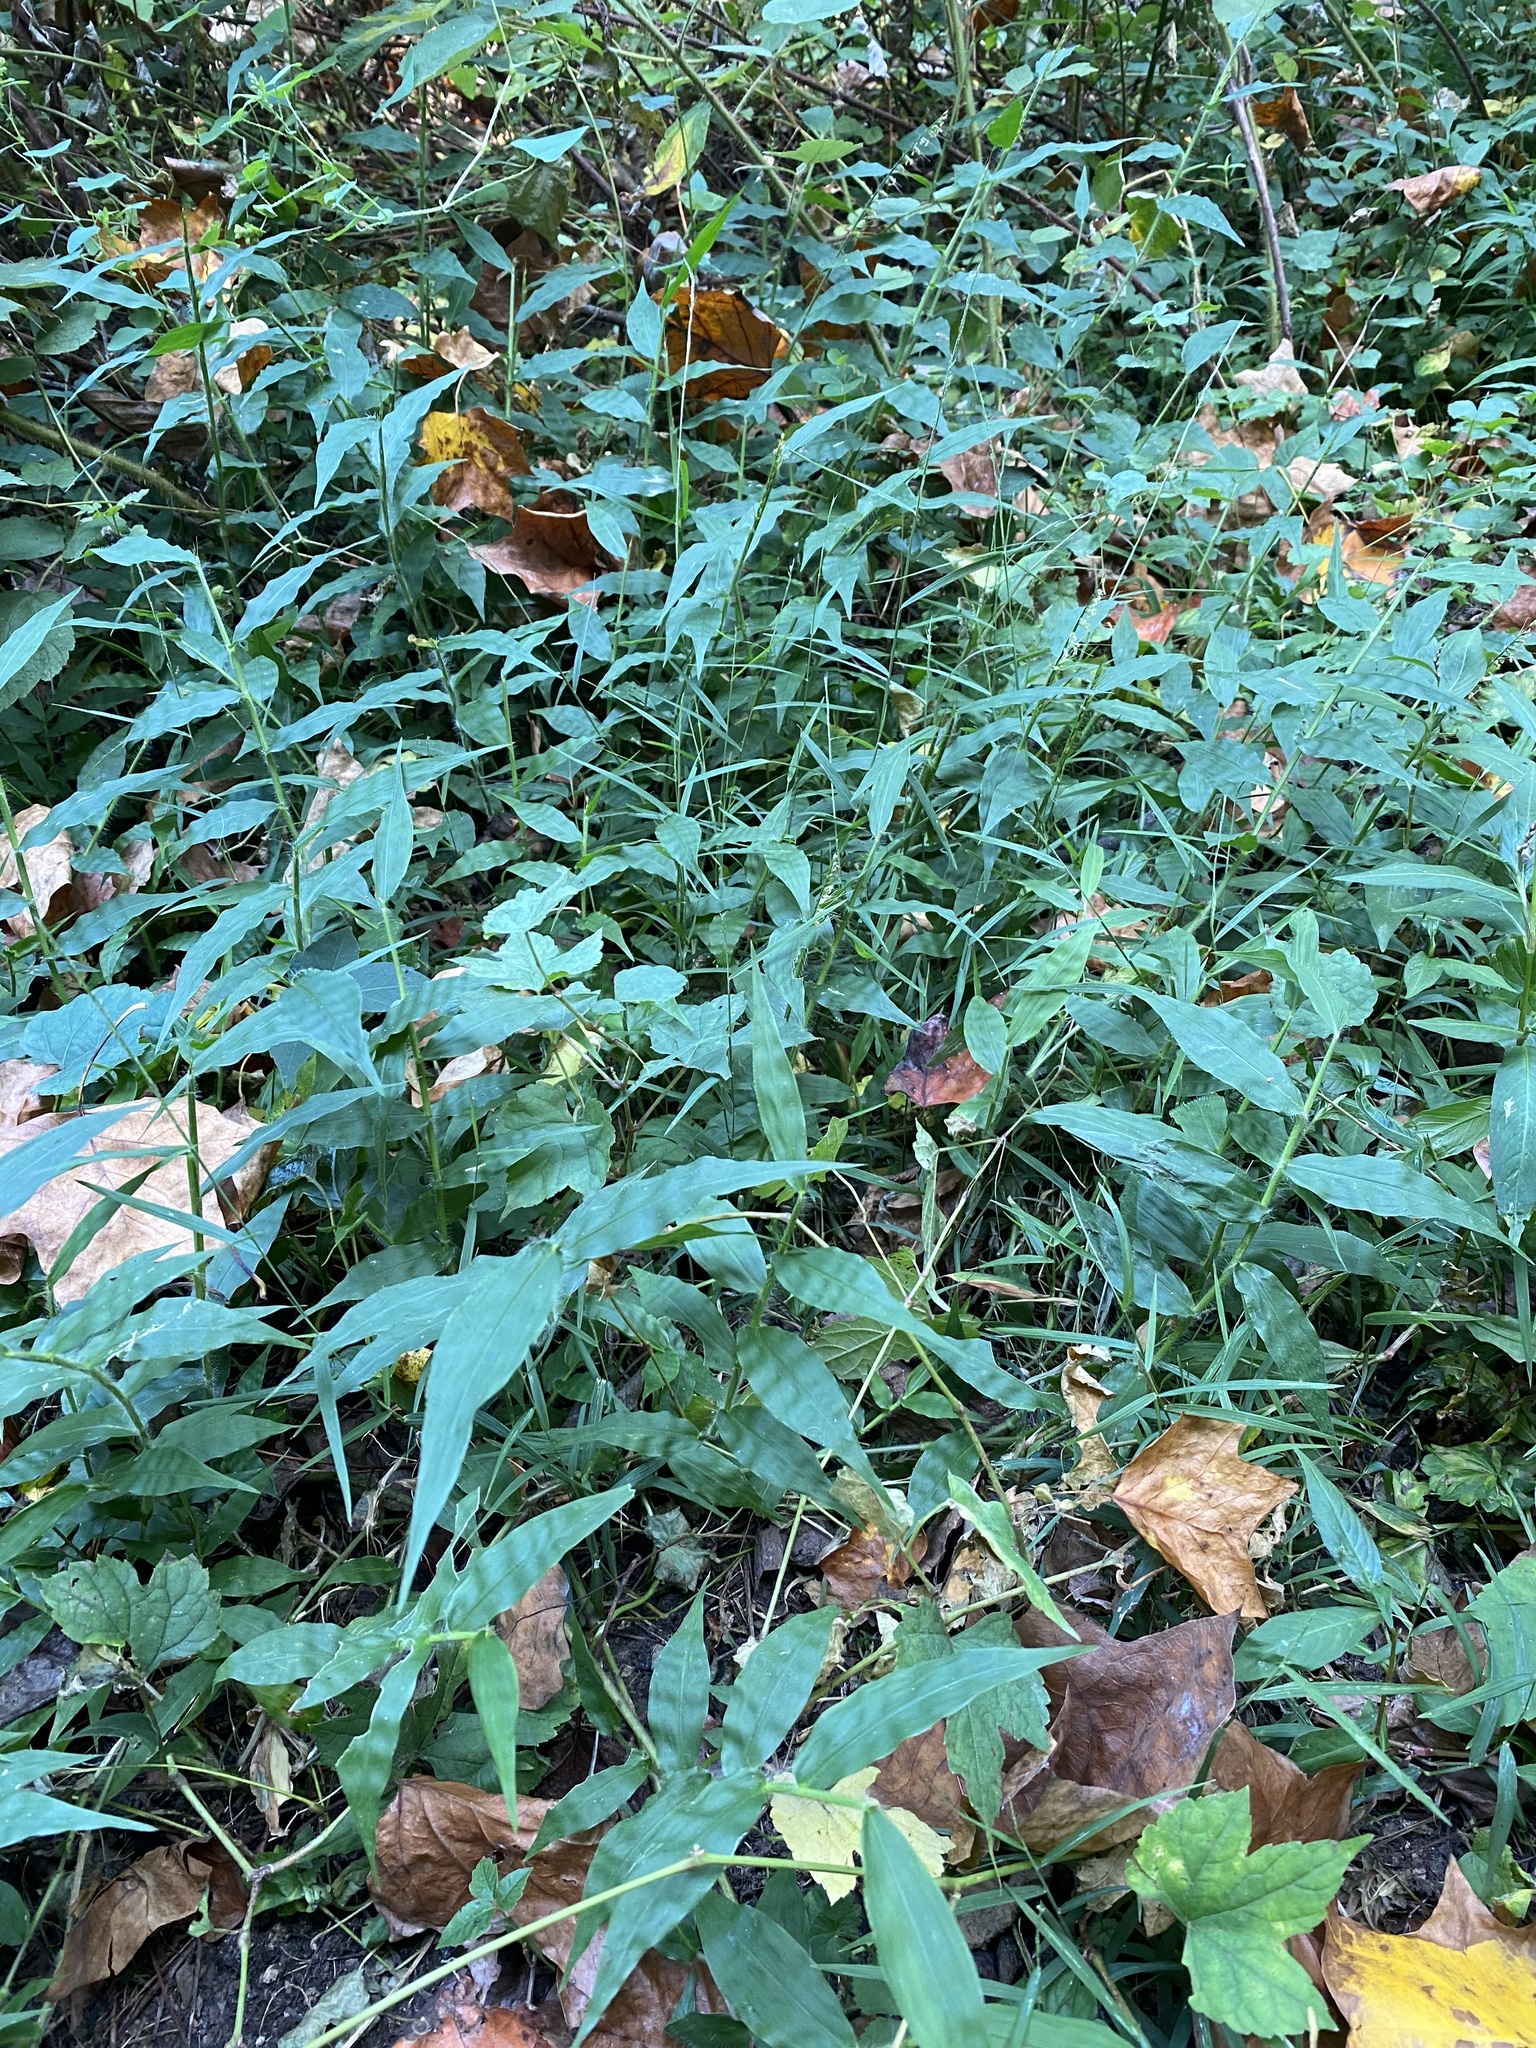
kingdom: Plantae
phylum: Tracheophyta
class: Liliopsida
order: Poales
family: Poaceae
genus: Oplismenus
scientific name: Oplismenus undulatifolius
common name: Wavyleaf basketgrass
